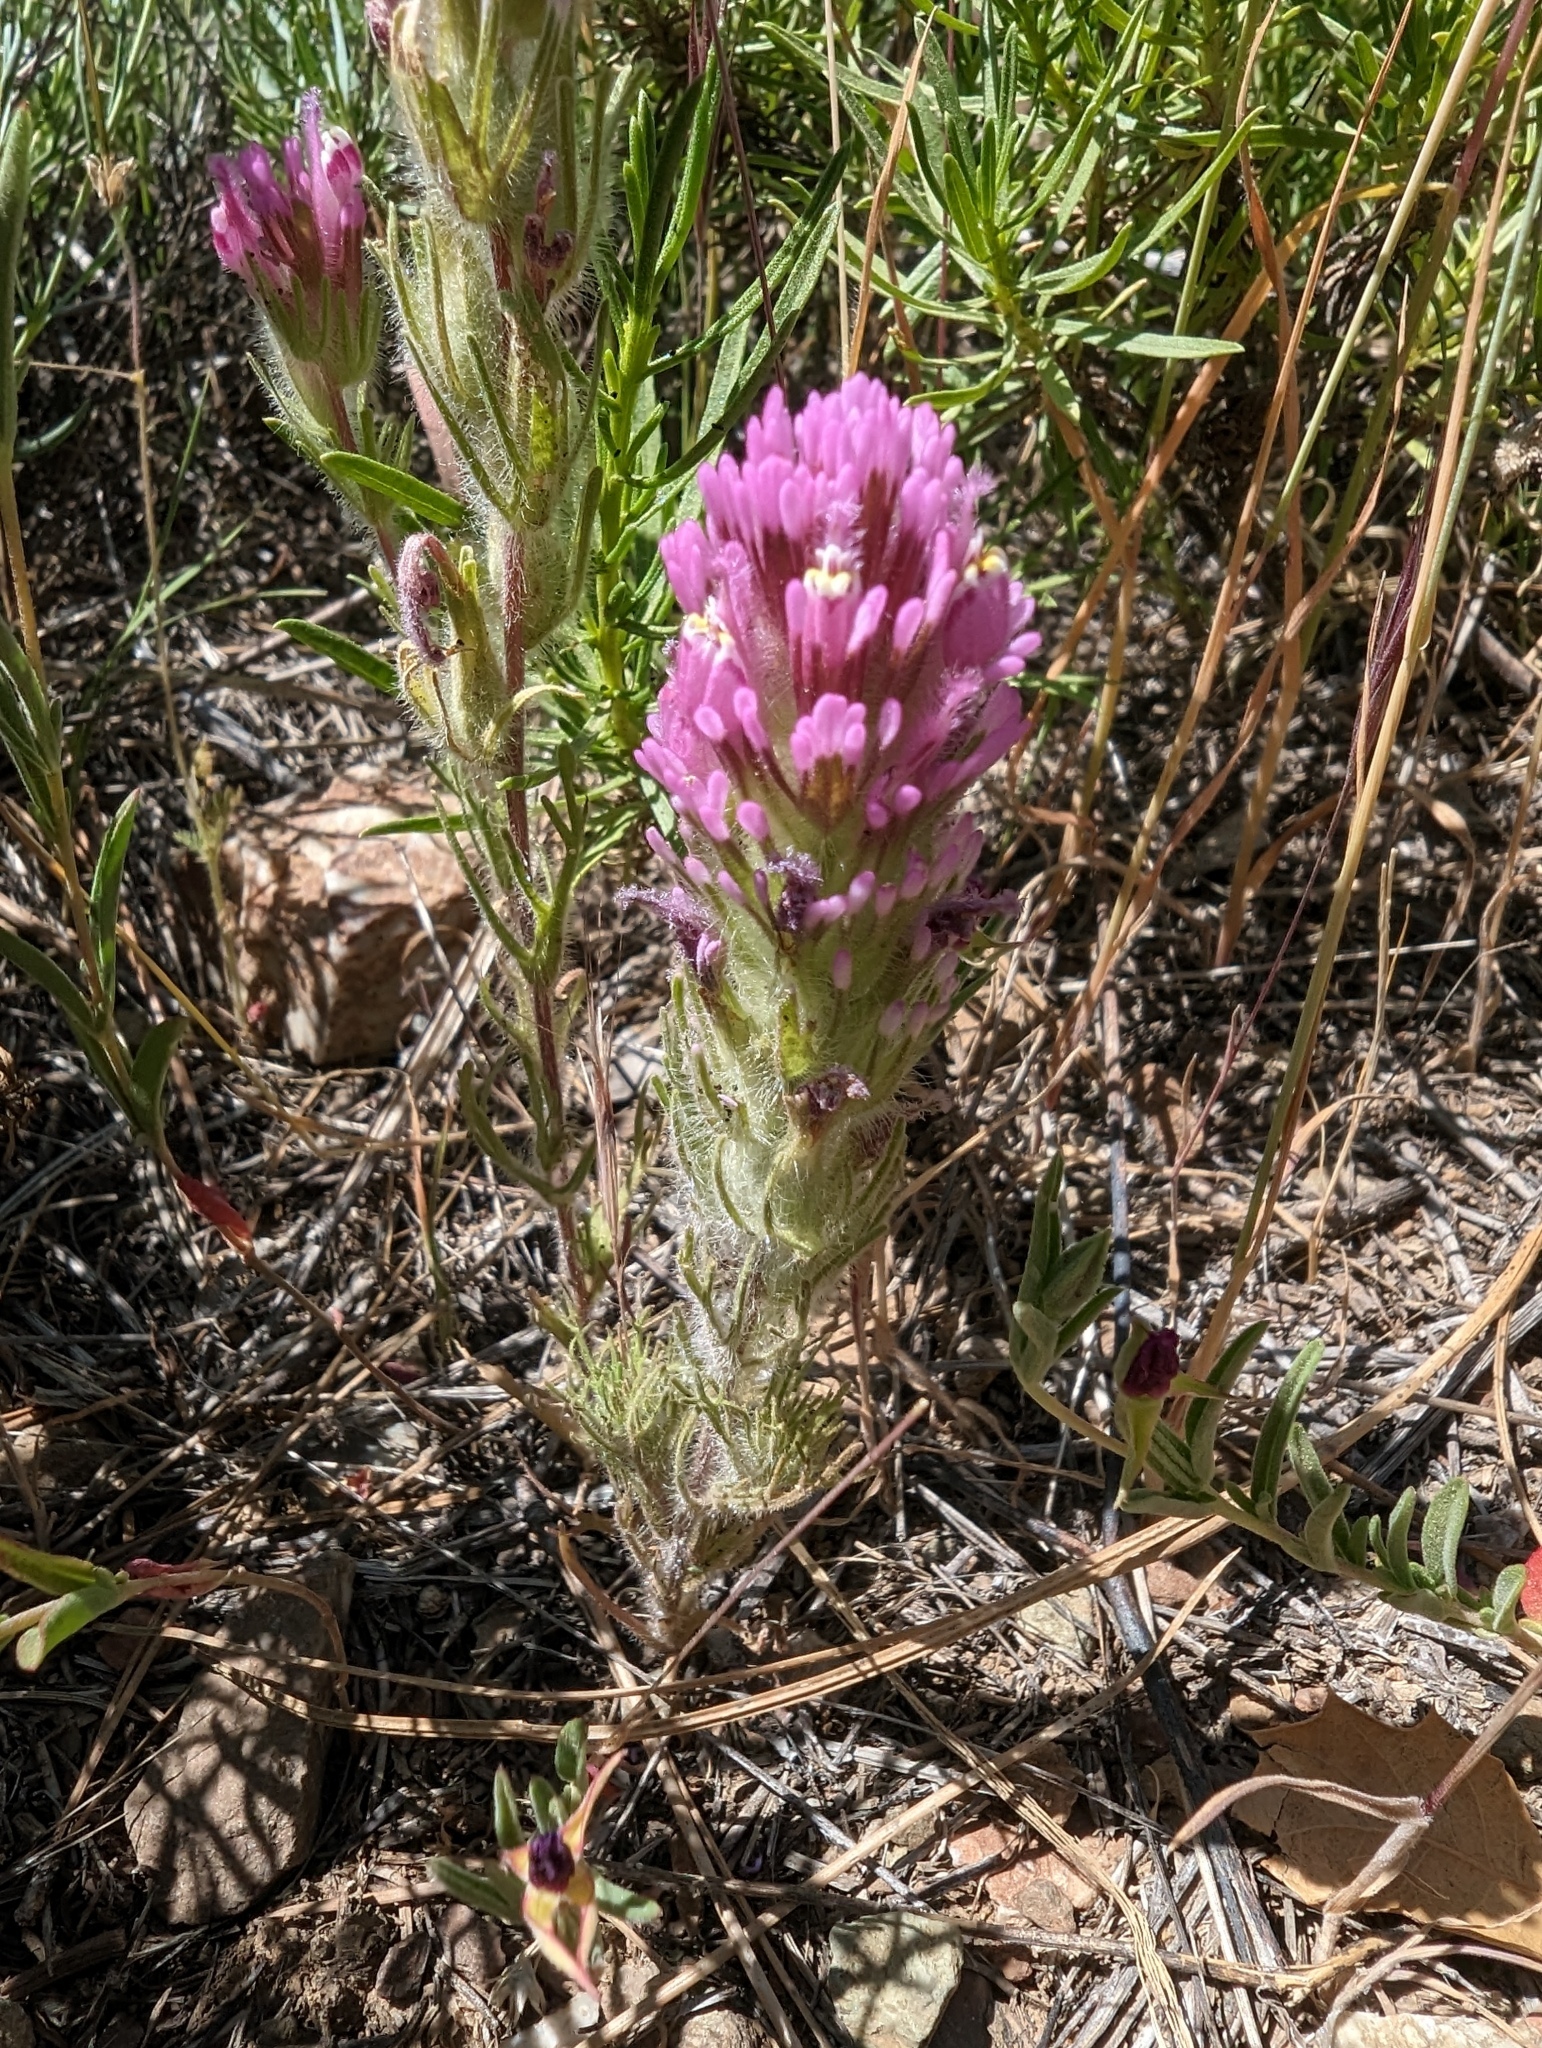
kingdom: Plantae
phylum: Tracheophyta
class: Magnoliopsida
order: Lamiales
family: Orobanchaceae
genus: Castilleja
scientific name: Castilleja exserta
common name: Purple owl-clover
